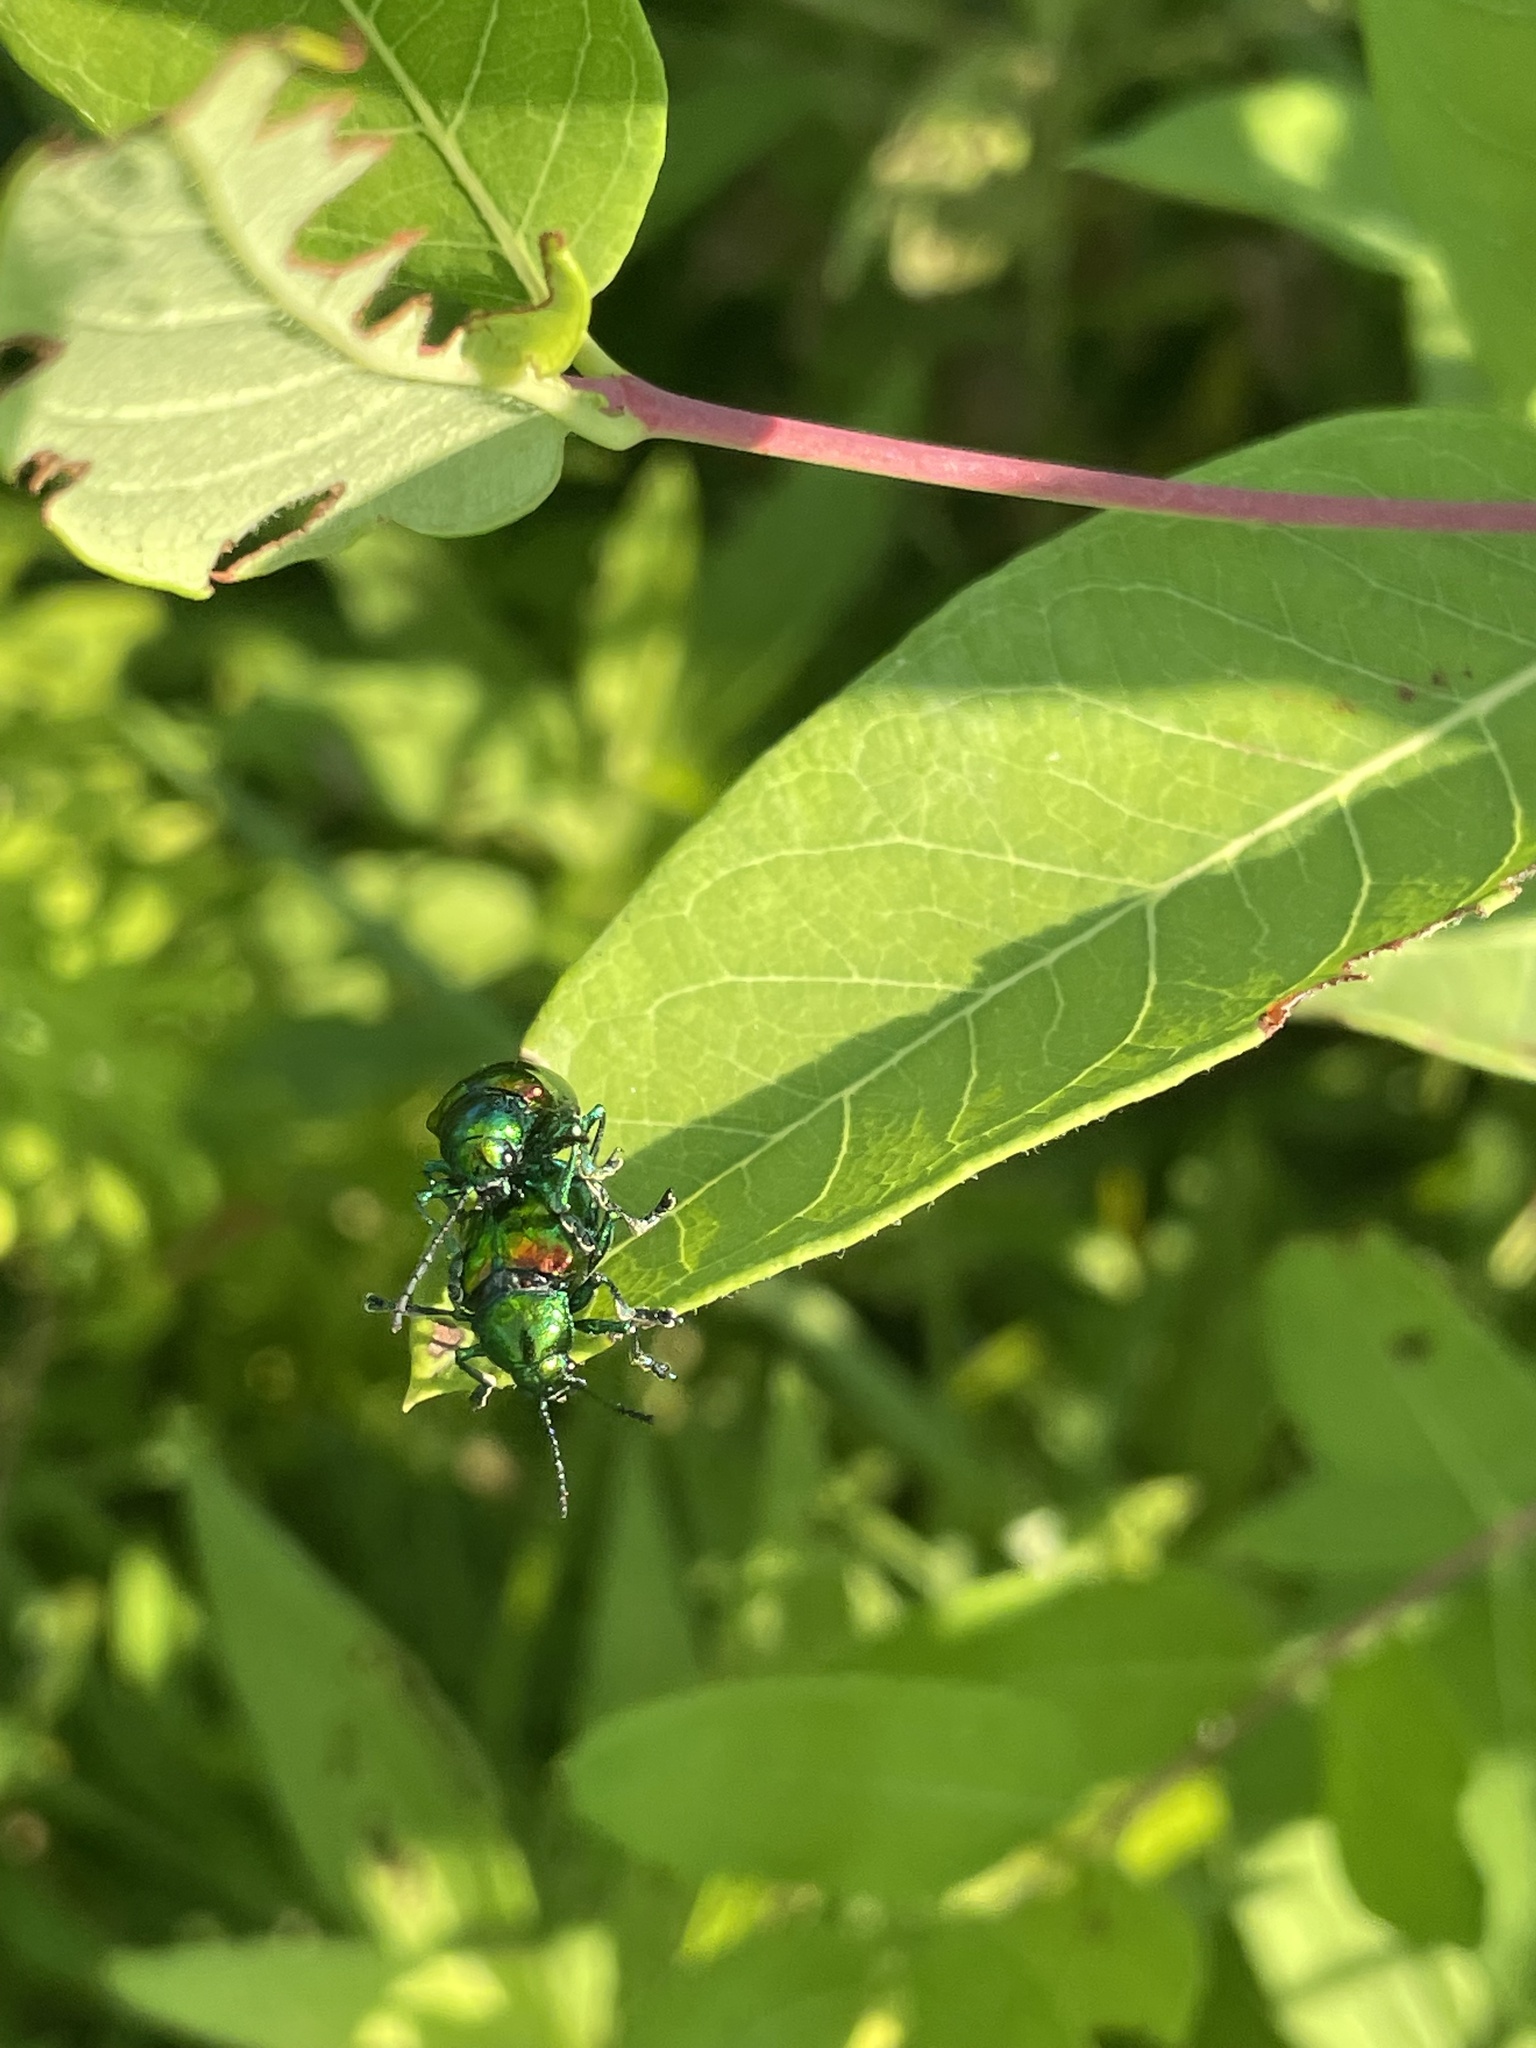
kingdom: Animalia
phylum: Arthropoda
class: Insecta
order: Coleoptera
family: Chrysomelidae
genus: Chrysochus
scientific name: Chrysochus auratus
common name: Dogbane leaf beetle
